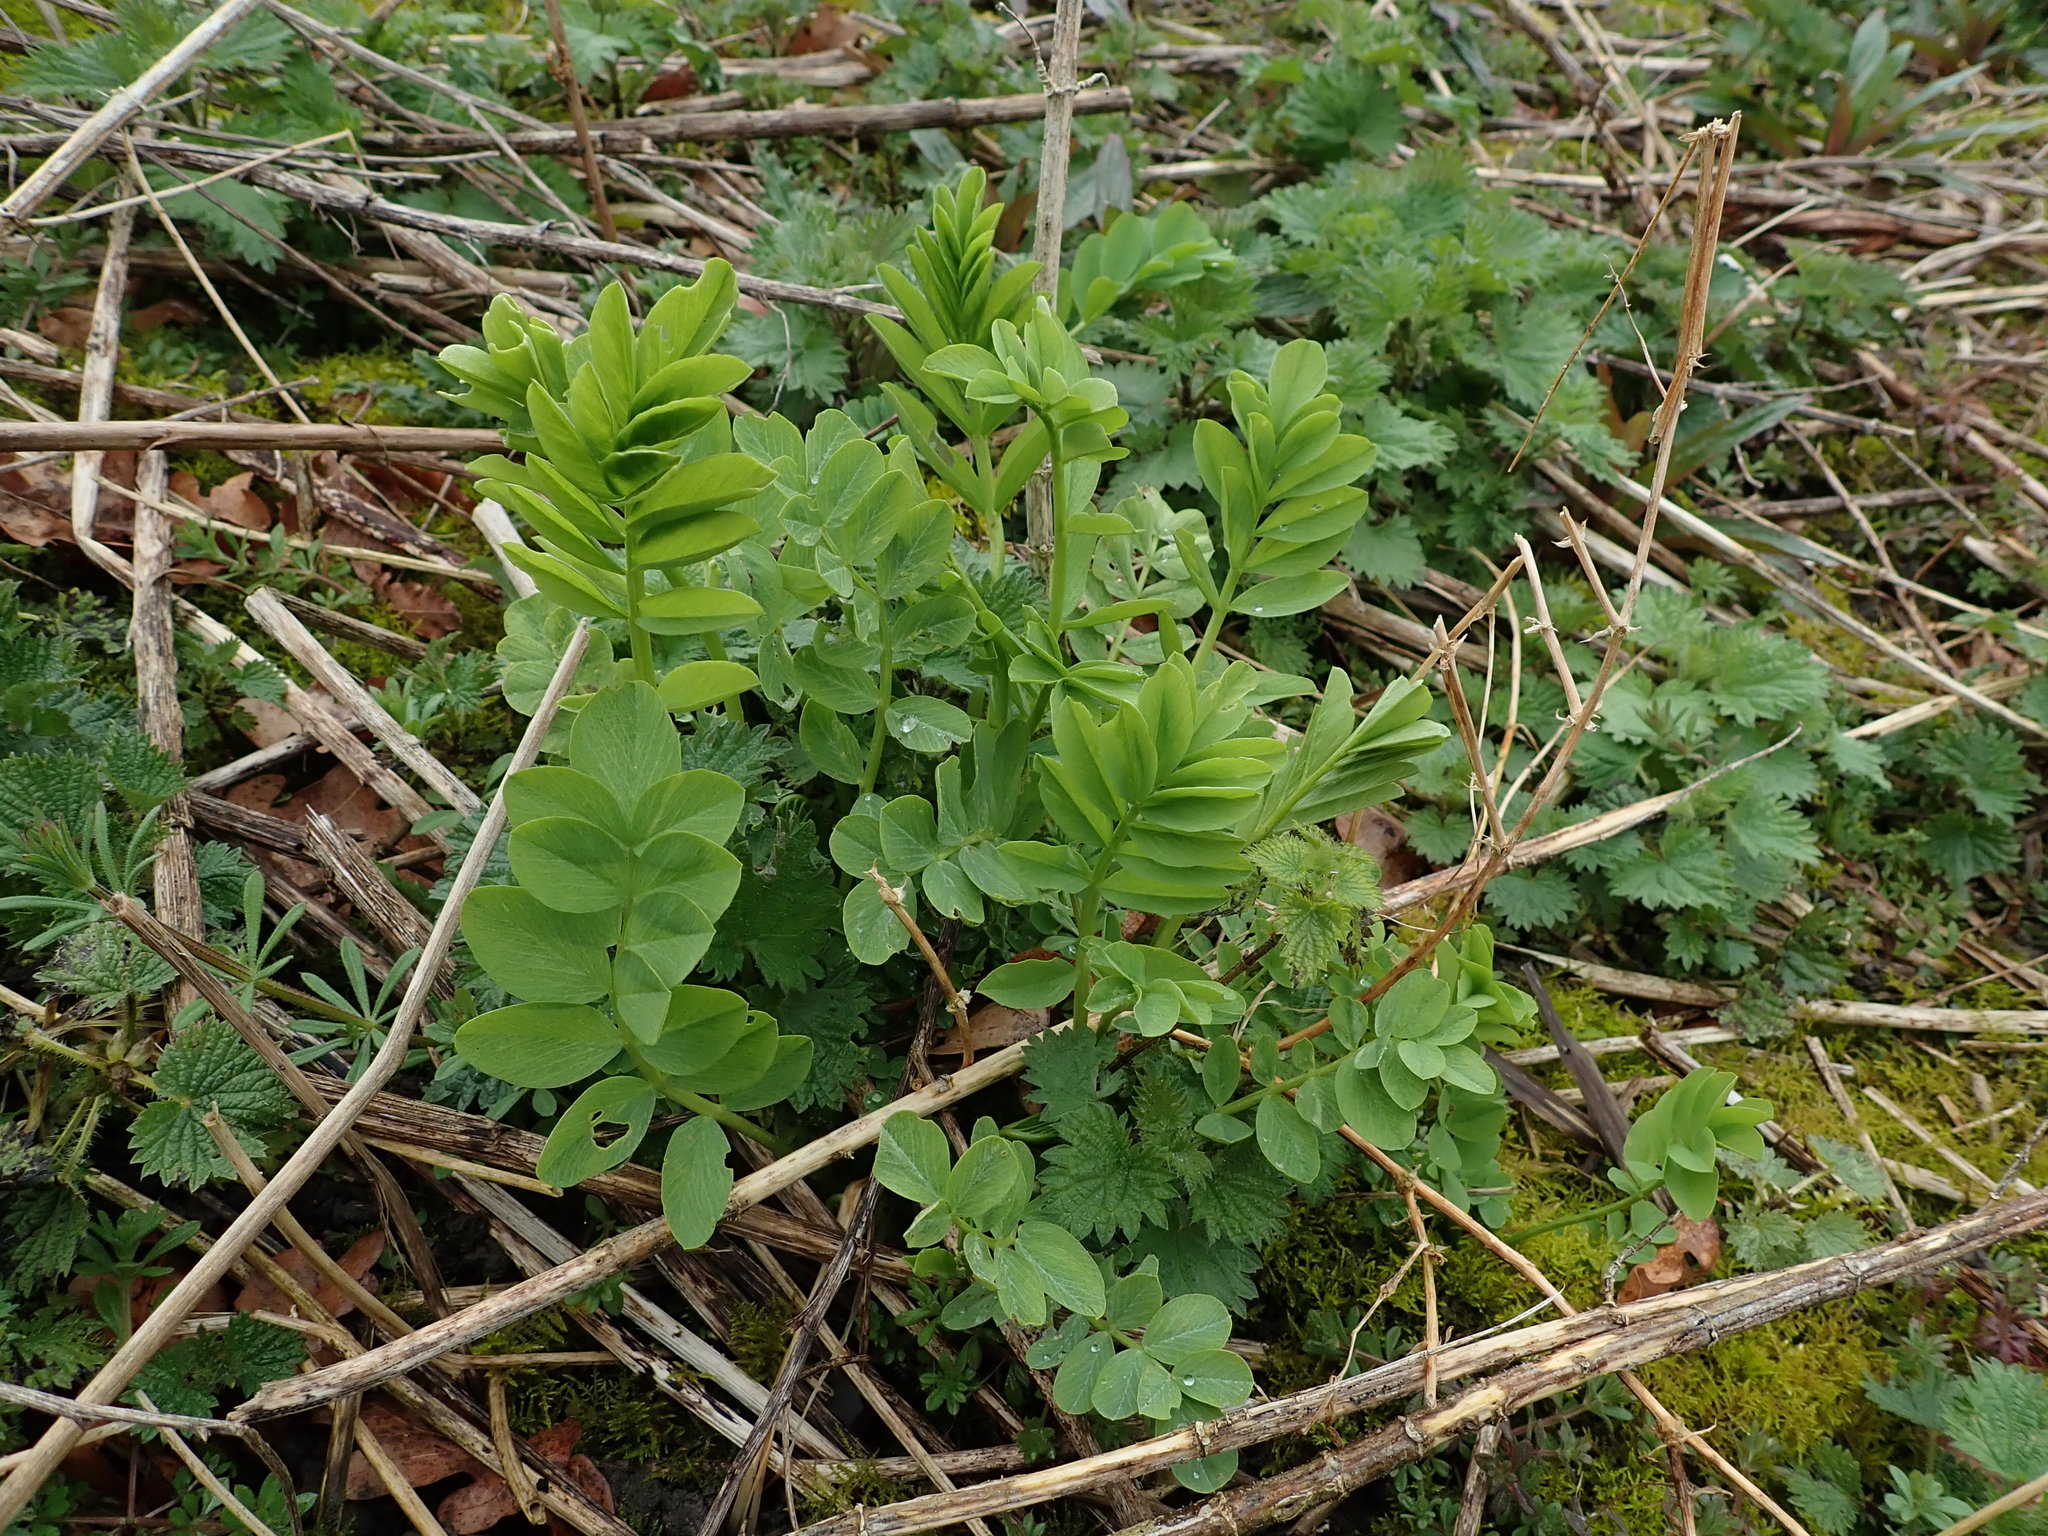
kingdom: Plantae
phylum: Tracheophyta
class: Magnoliopsida
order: Fabales
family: Fabaceae
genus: Galega
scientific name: Galega officinalis
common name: Goat's-rue
